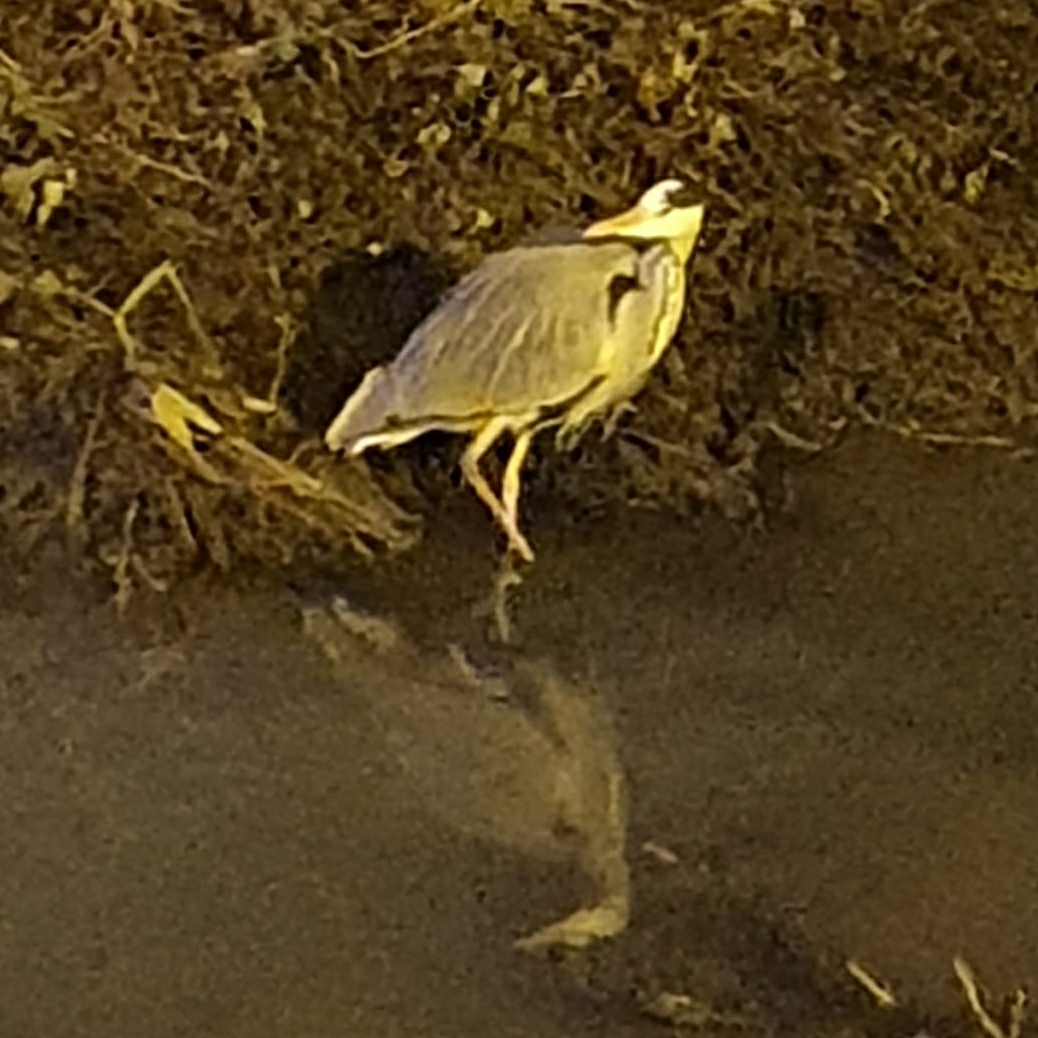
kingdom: Animalia
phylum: Chordata
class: Aves
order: Pelecaniformes
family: Ardeidae
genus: Ardea
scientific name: Ardea cinerea
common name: Grey heron
